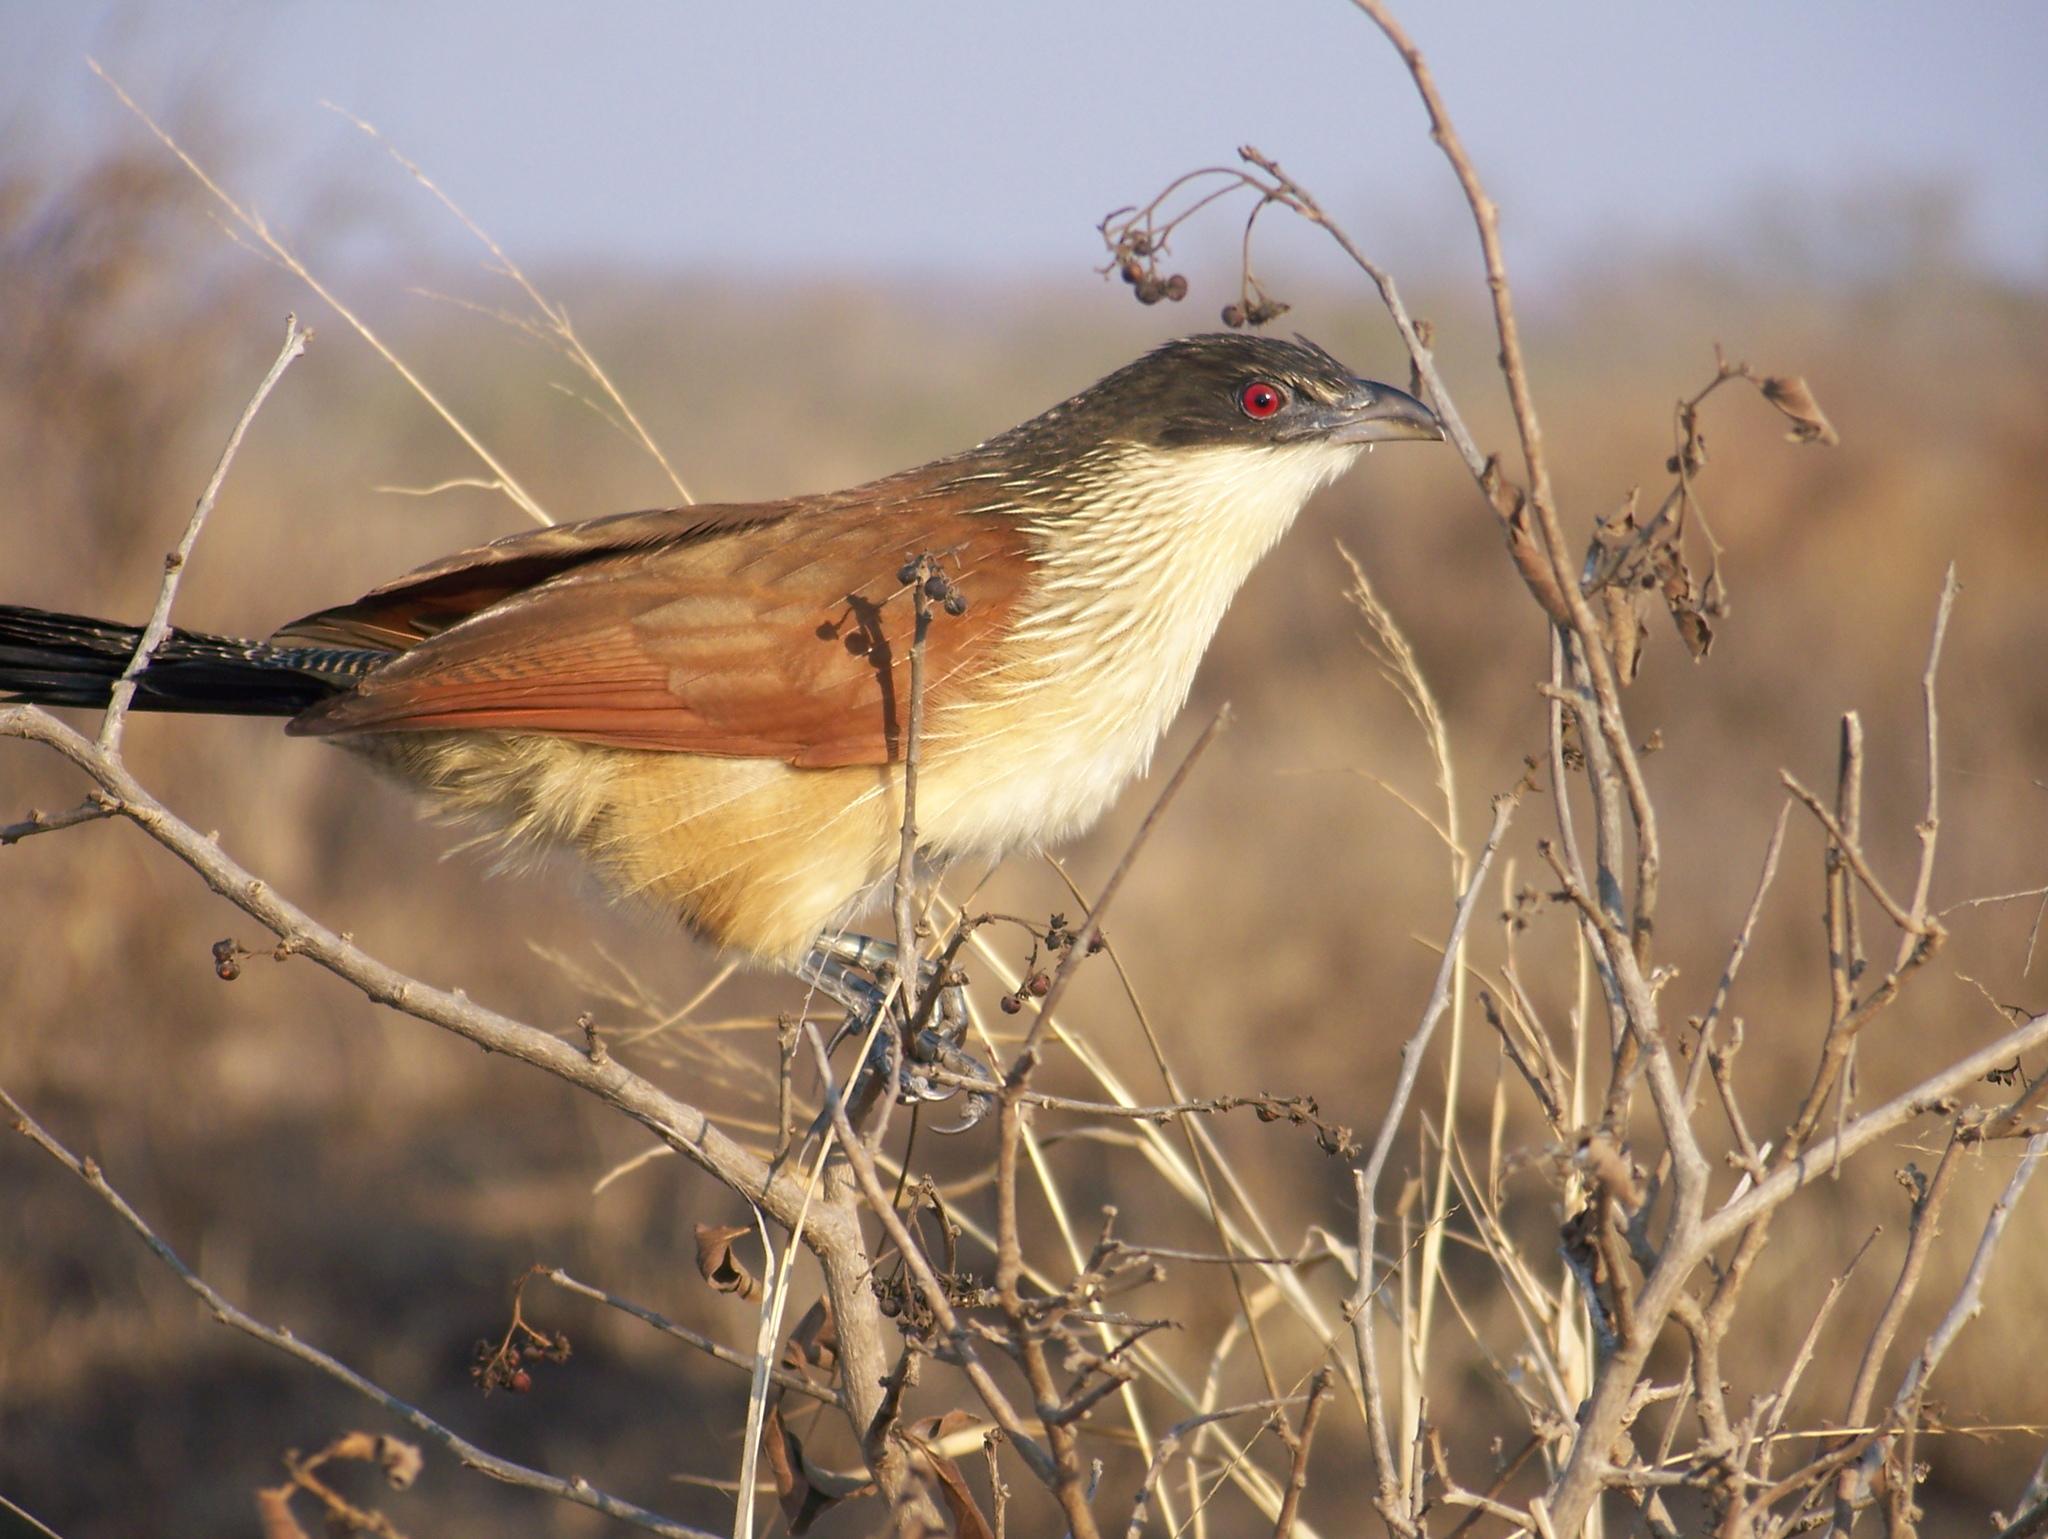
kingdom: Animalia
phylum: Chordata
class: Aves
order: Cuculiformes
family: Cuculidae
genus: Centropus
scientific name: Centropus superciliosus
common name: White-browed coucal
